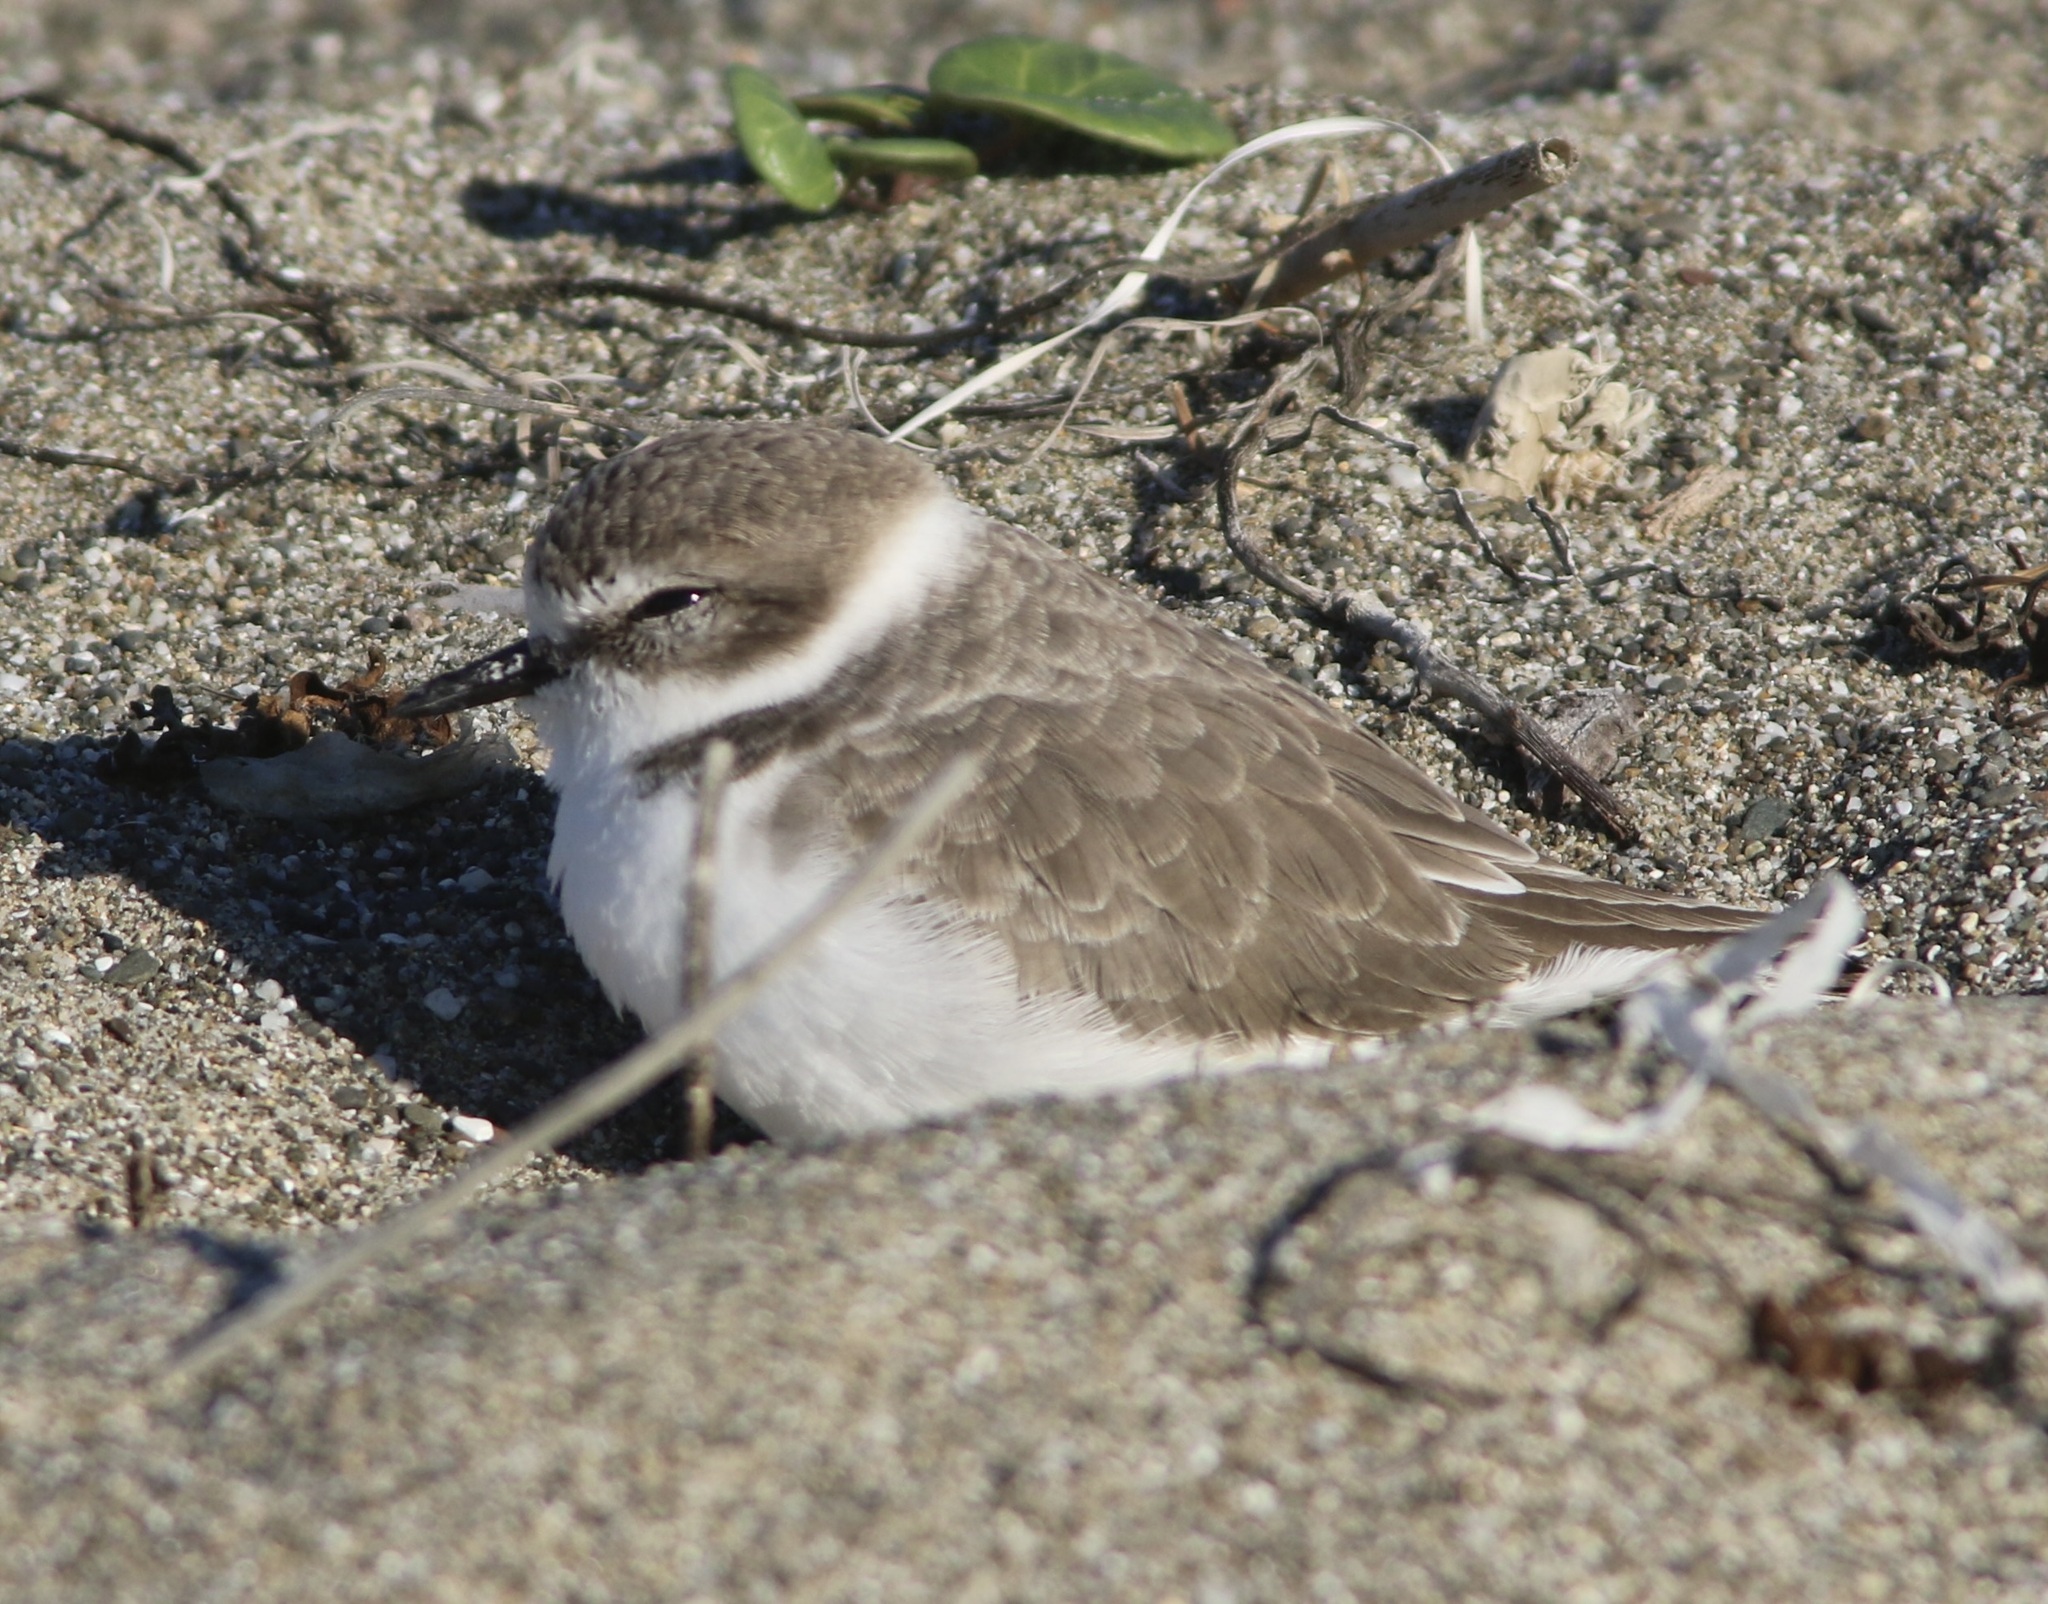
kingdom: Animalia
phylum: Chordata
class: Aves
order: Charadriiformes
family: Charadriidae
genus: Anarhynchus
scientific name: Anarhynchus
